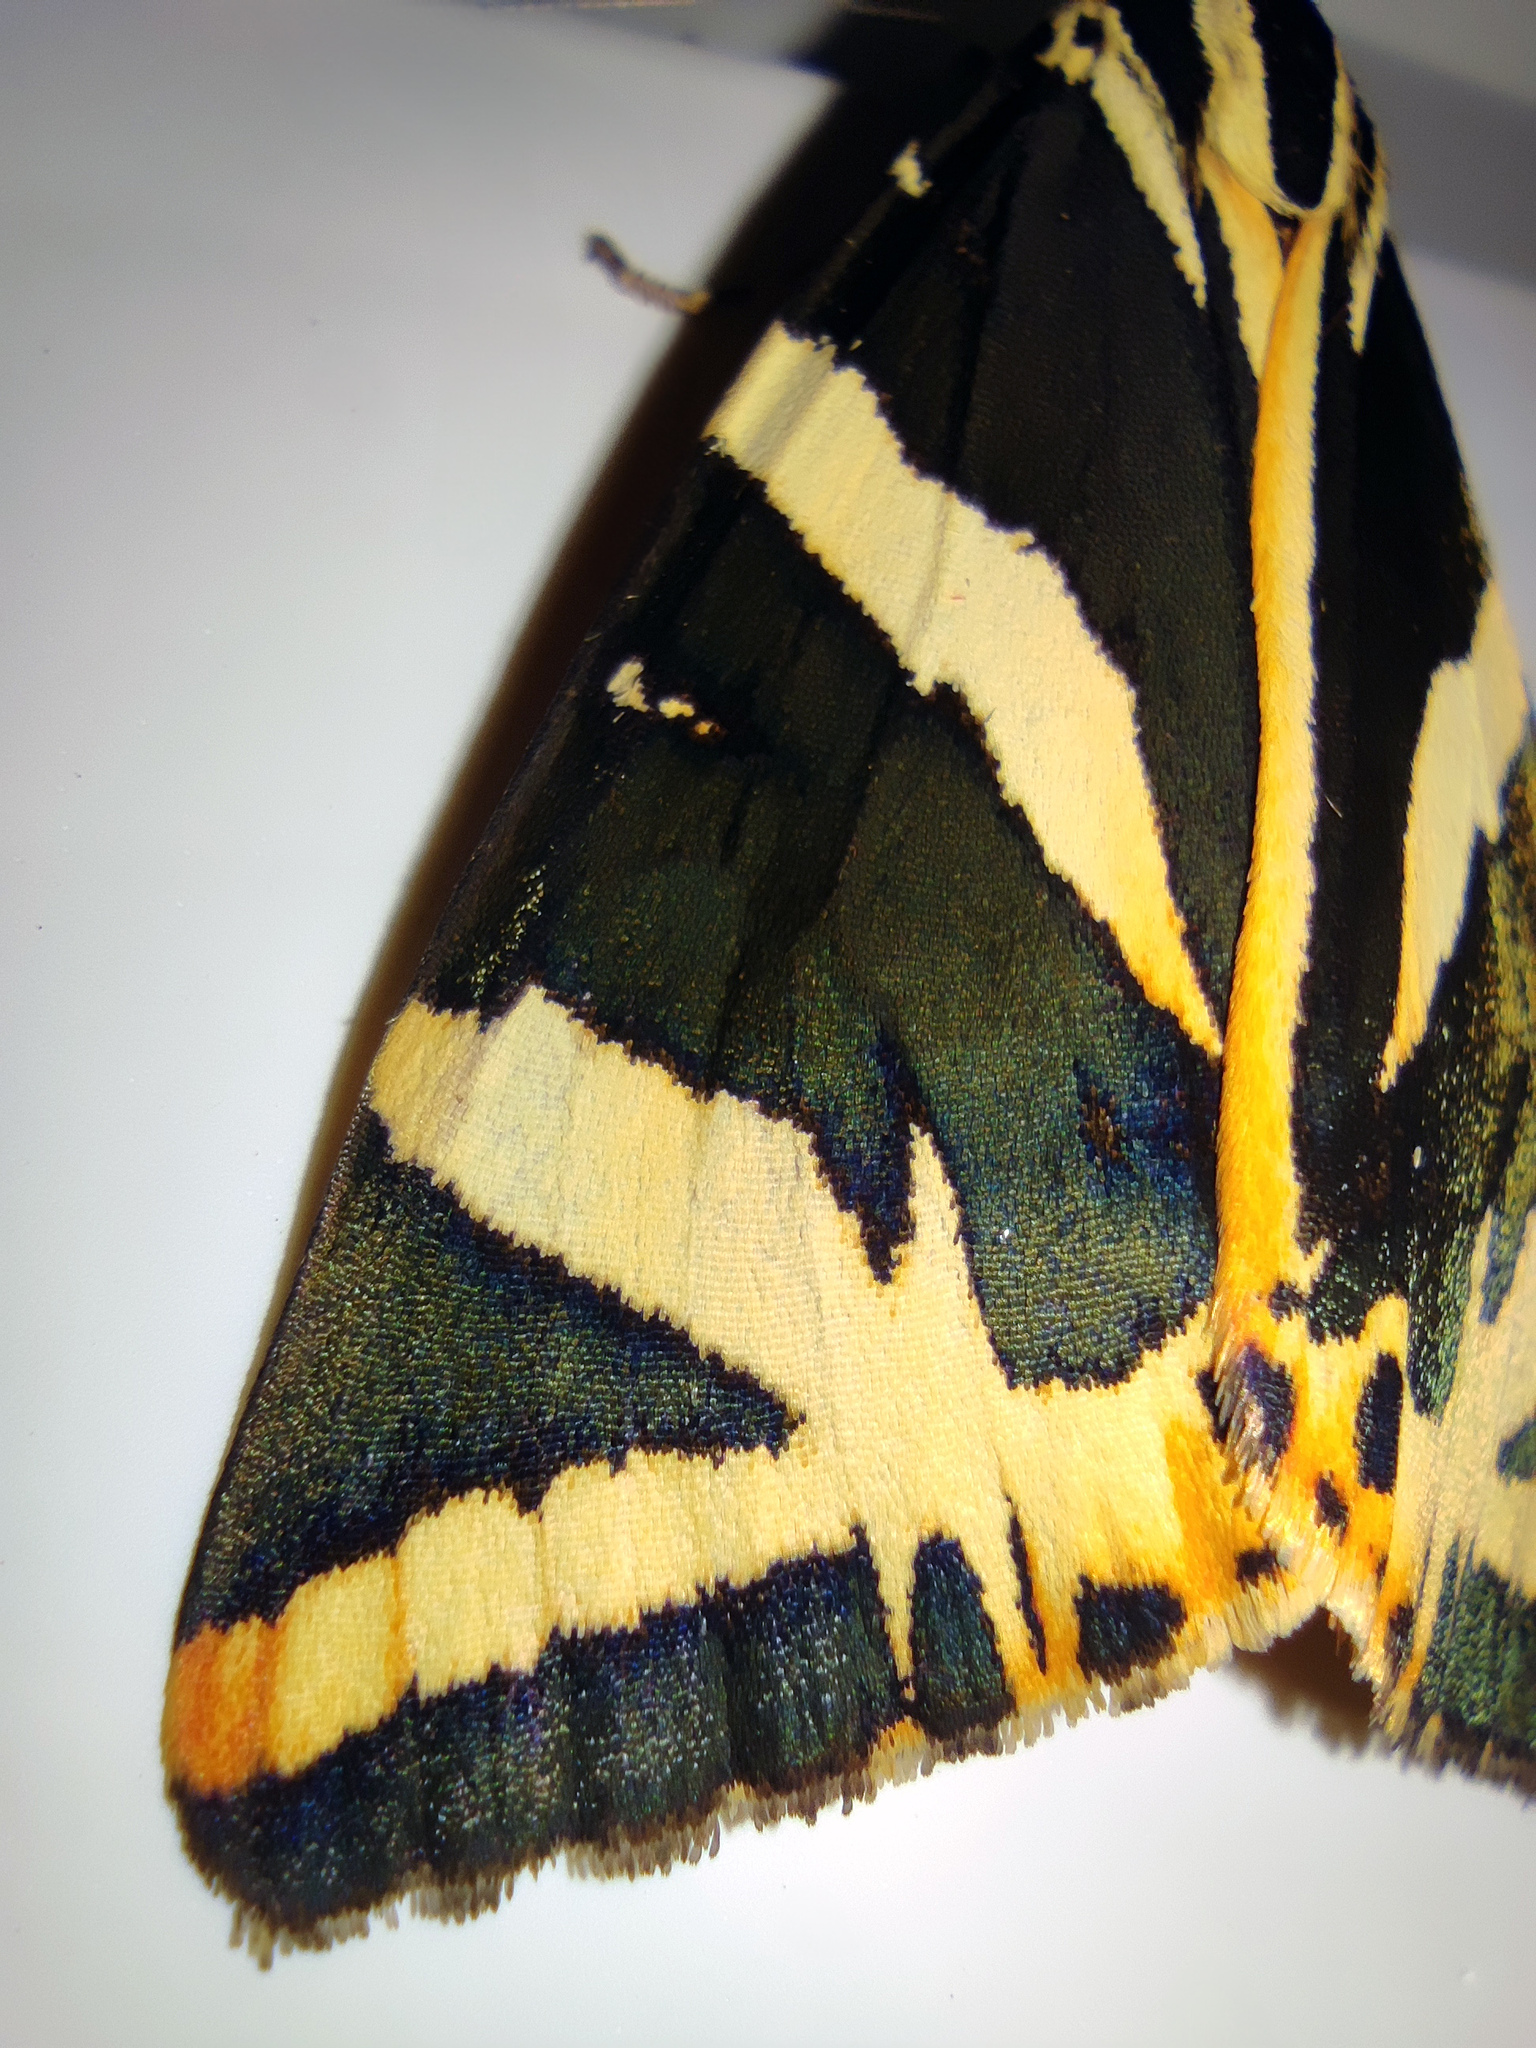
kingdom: Animalia
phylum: Arthropoda
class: Insecta
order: Lepidoptera
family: Erebidae
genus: Euplagia
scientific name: Euplagia quadripunctaria
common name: Jersey tiger
